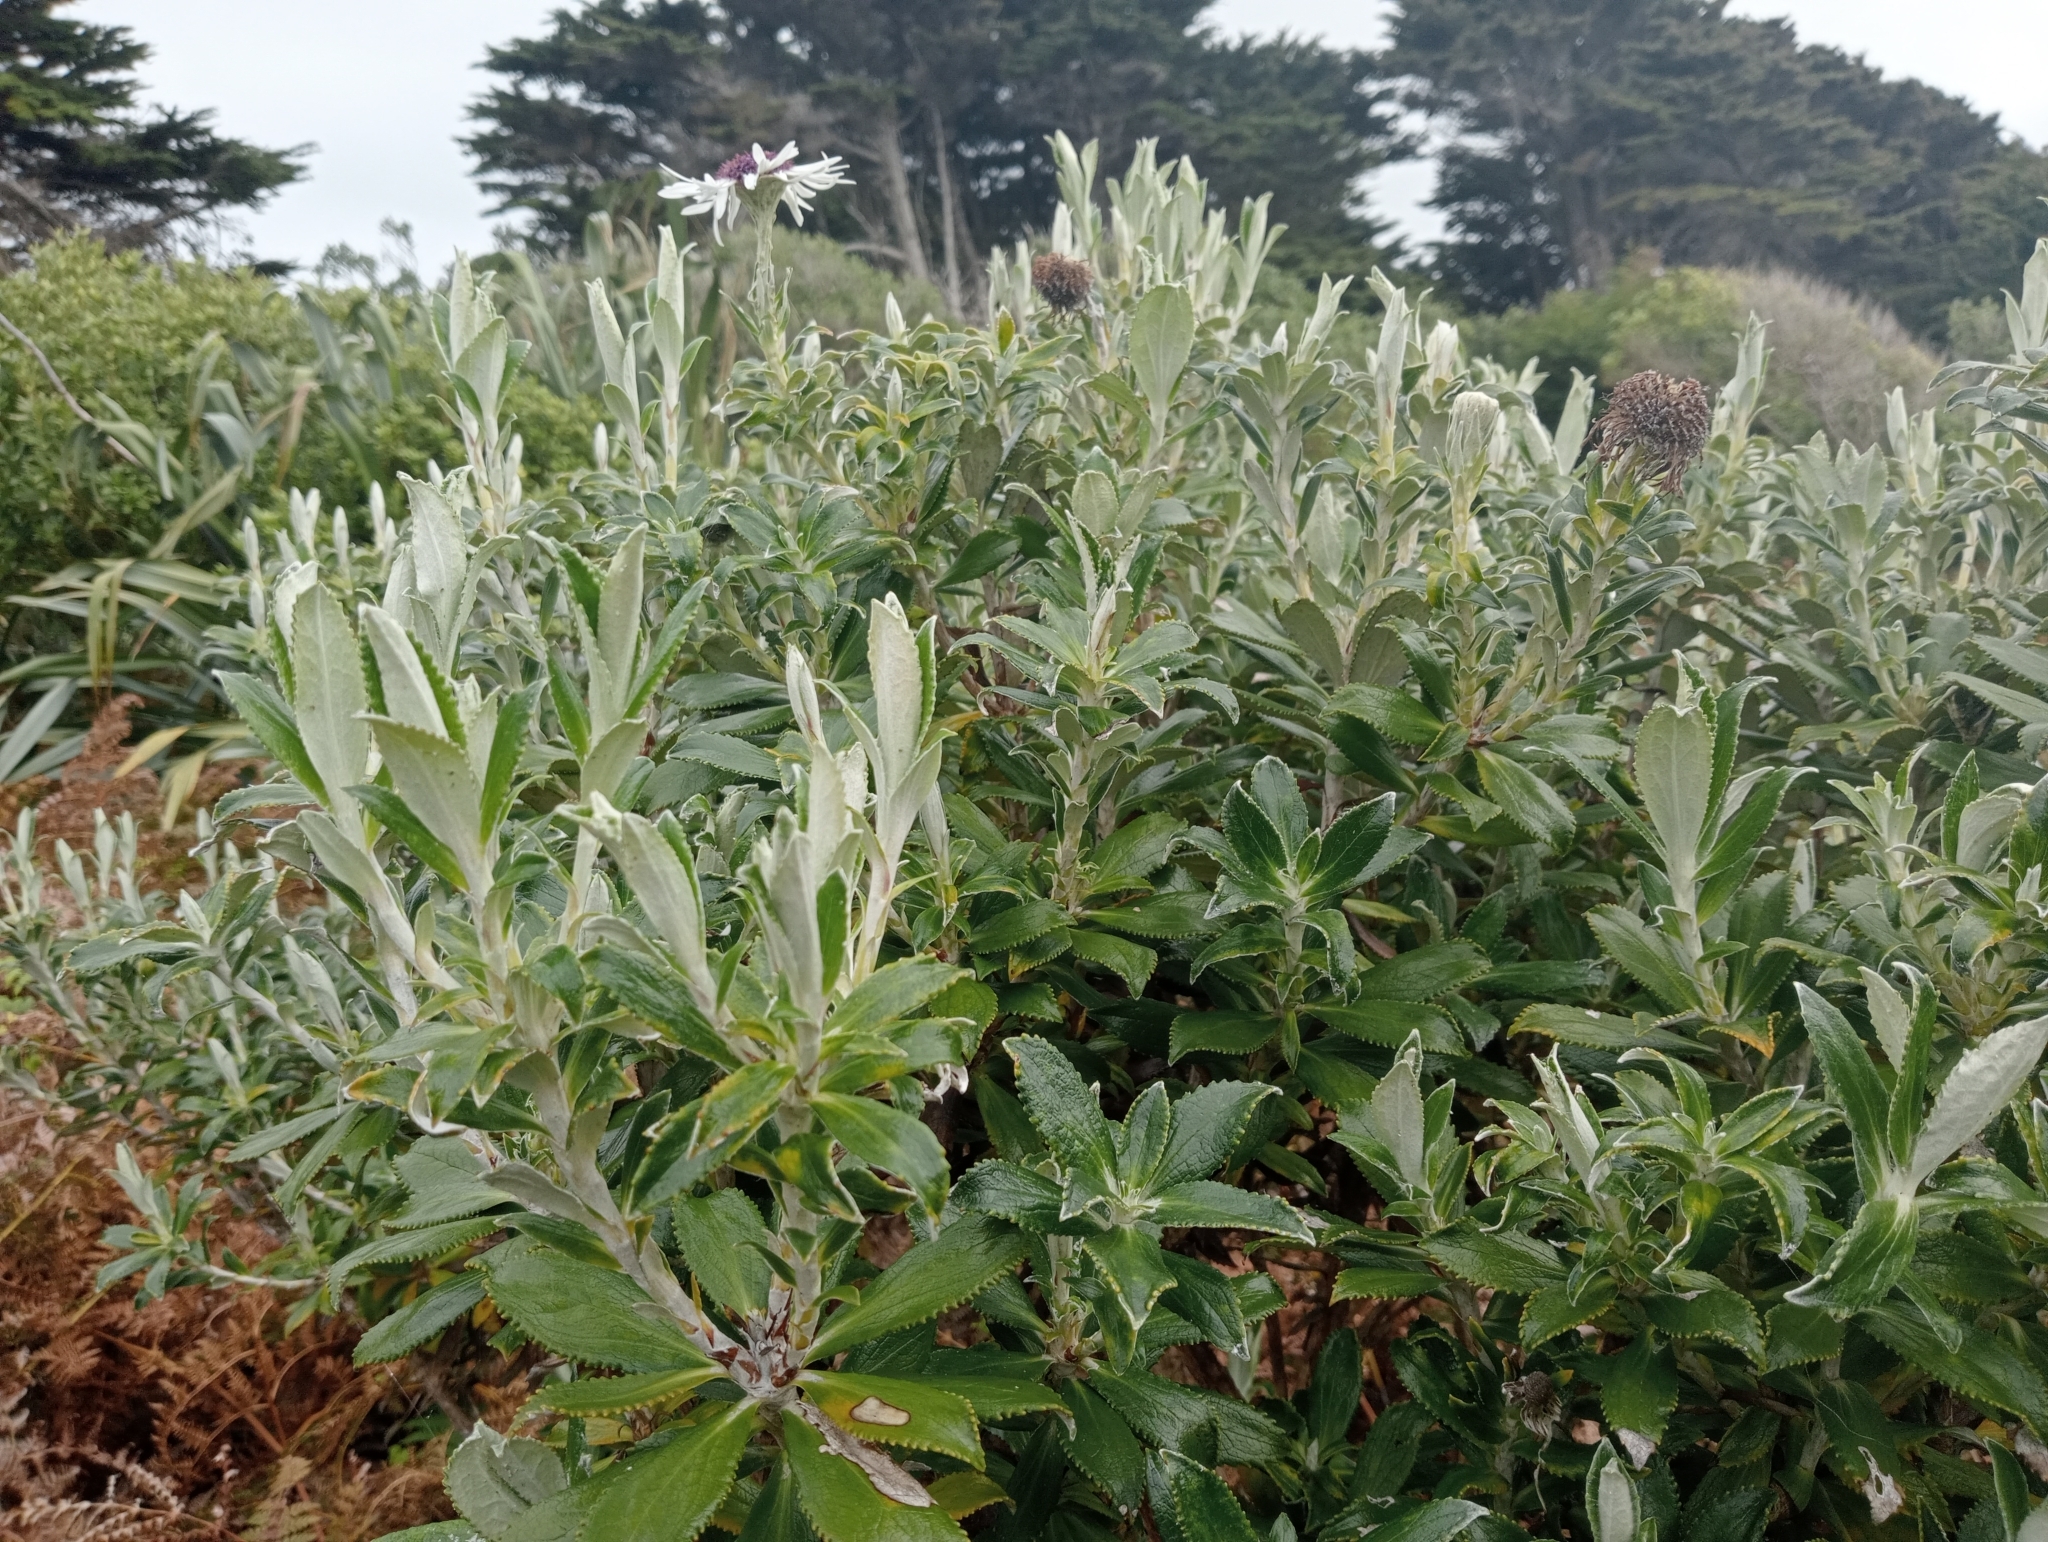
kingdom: Plantae
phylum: Tracheophyta
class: Magnoliopsida
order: Asterales
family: Asteraceae
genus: Macrolearia
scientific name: Macrolearia chathamica
